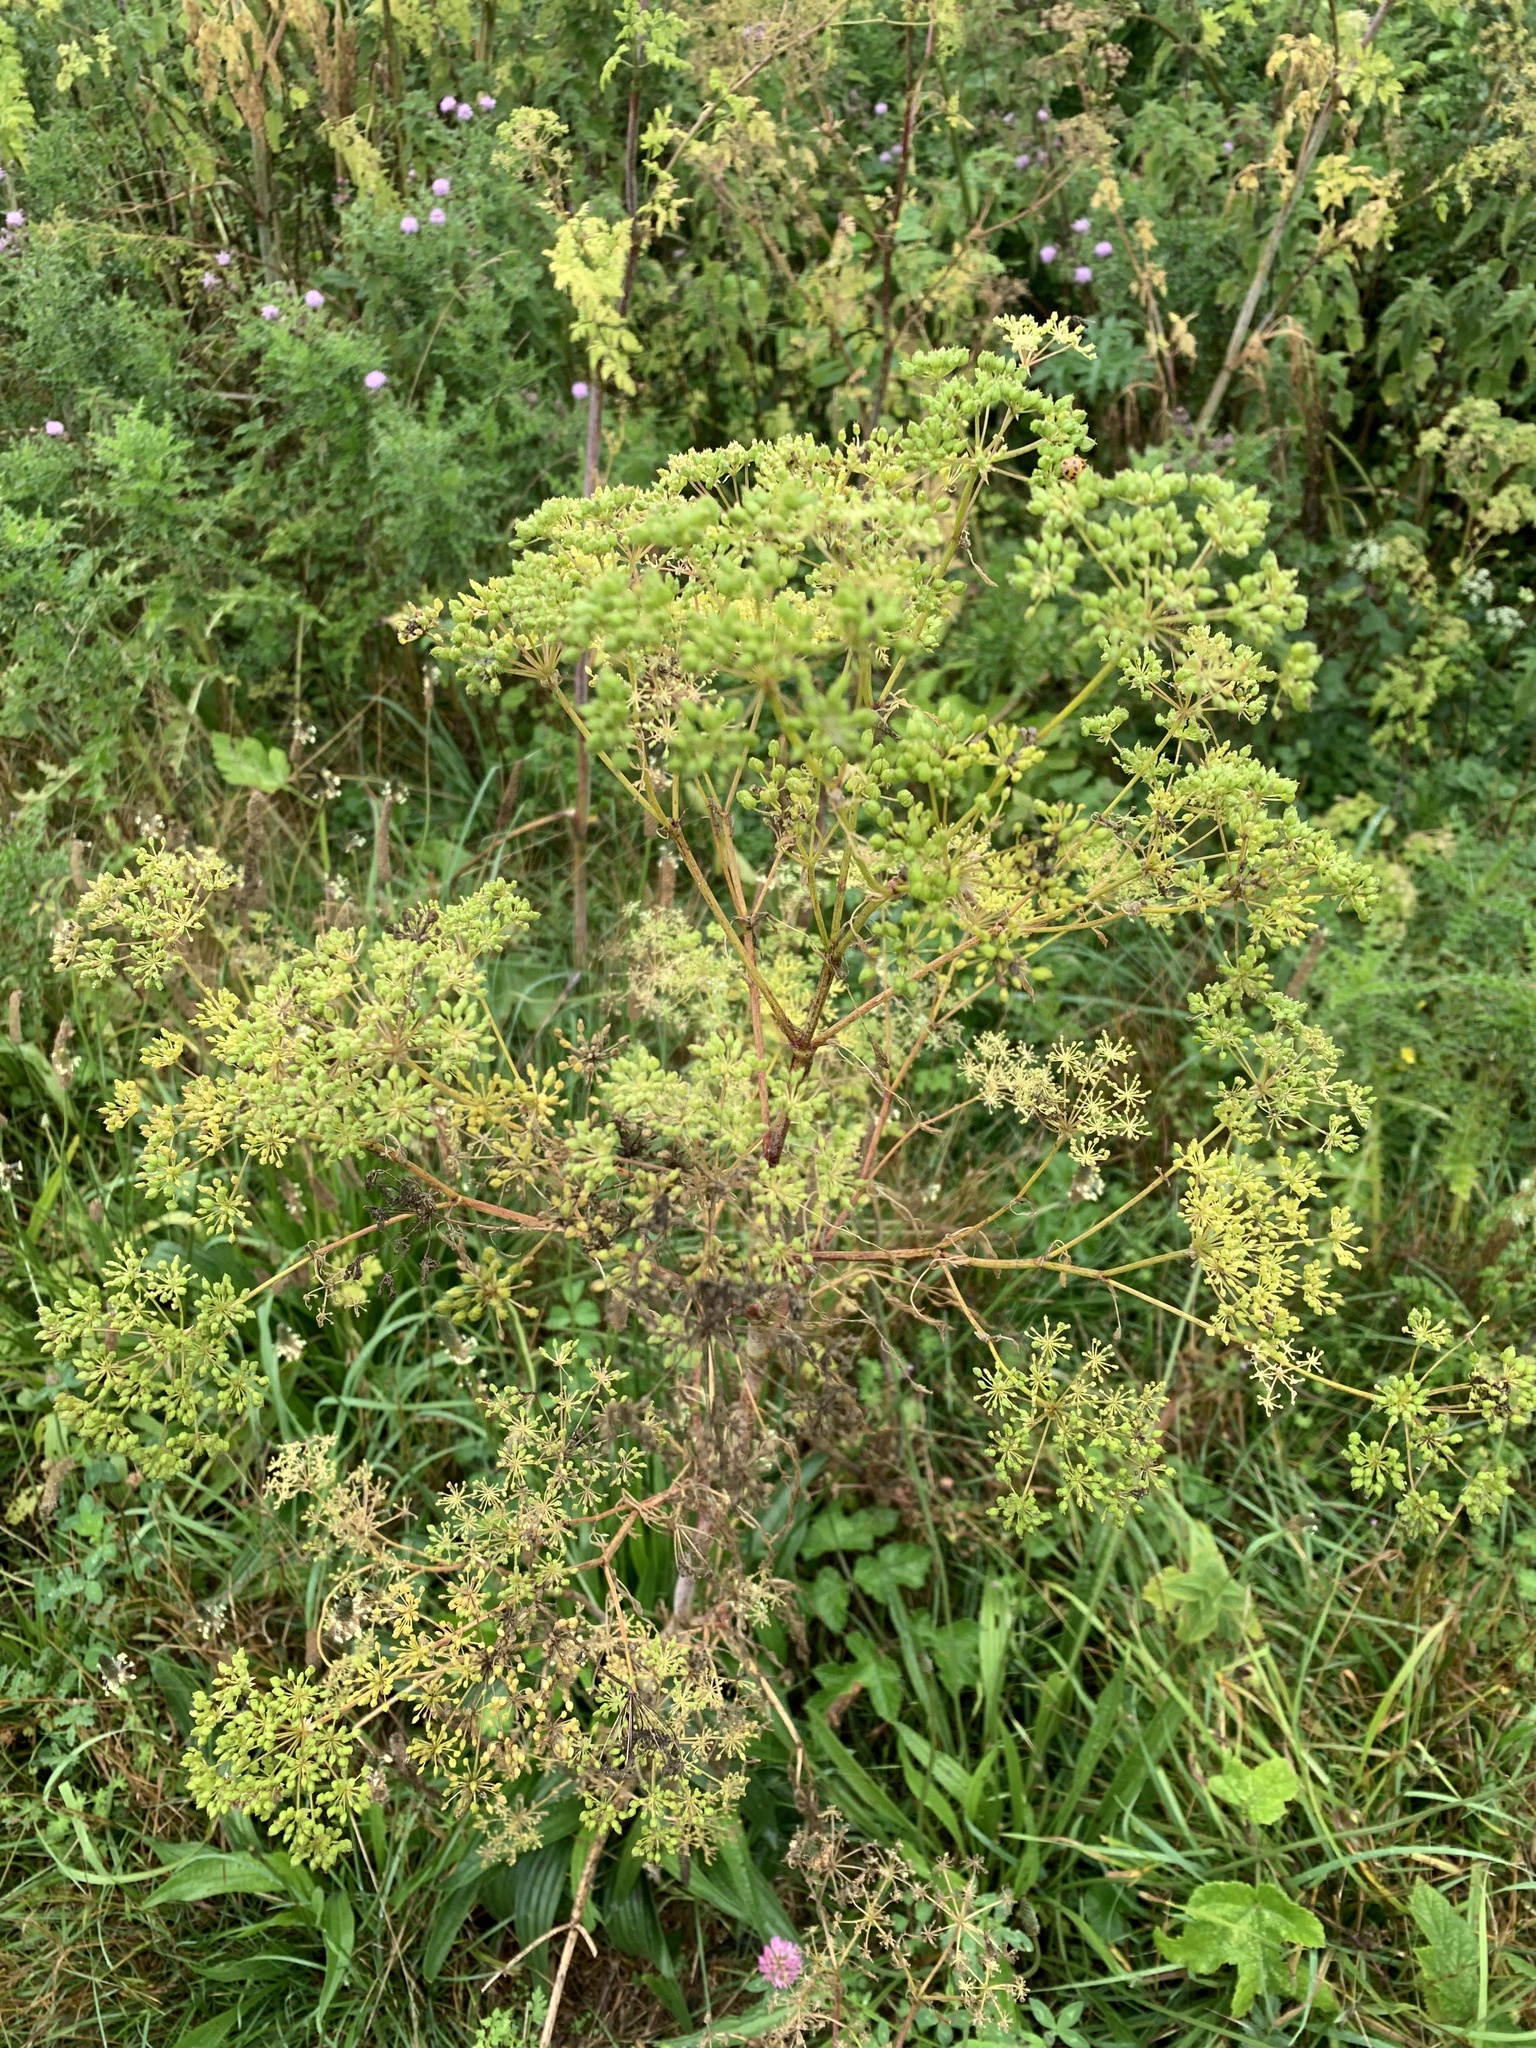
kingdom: Plantae
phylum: Tracheophyta
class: Magnoliopsida
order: Apiales
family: Apiaceae
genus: Pastinaca
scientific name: Pastinaca sativa
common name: Wild parsnip
